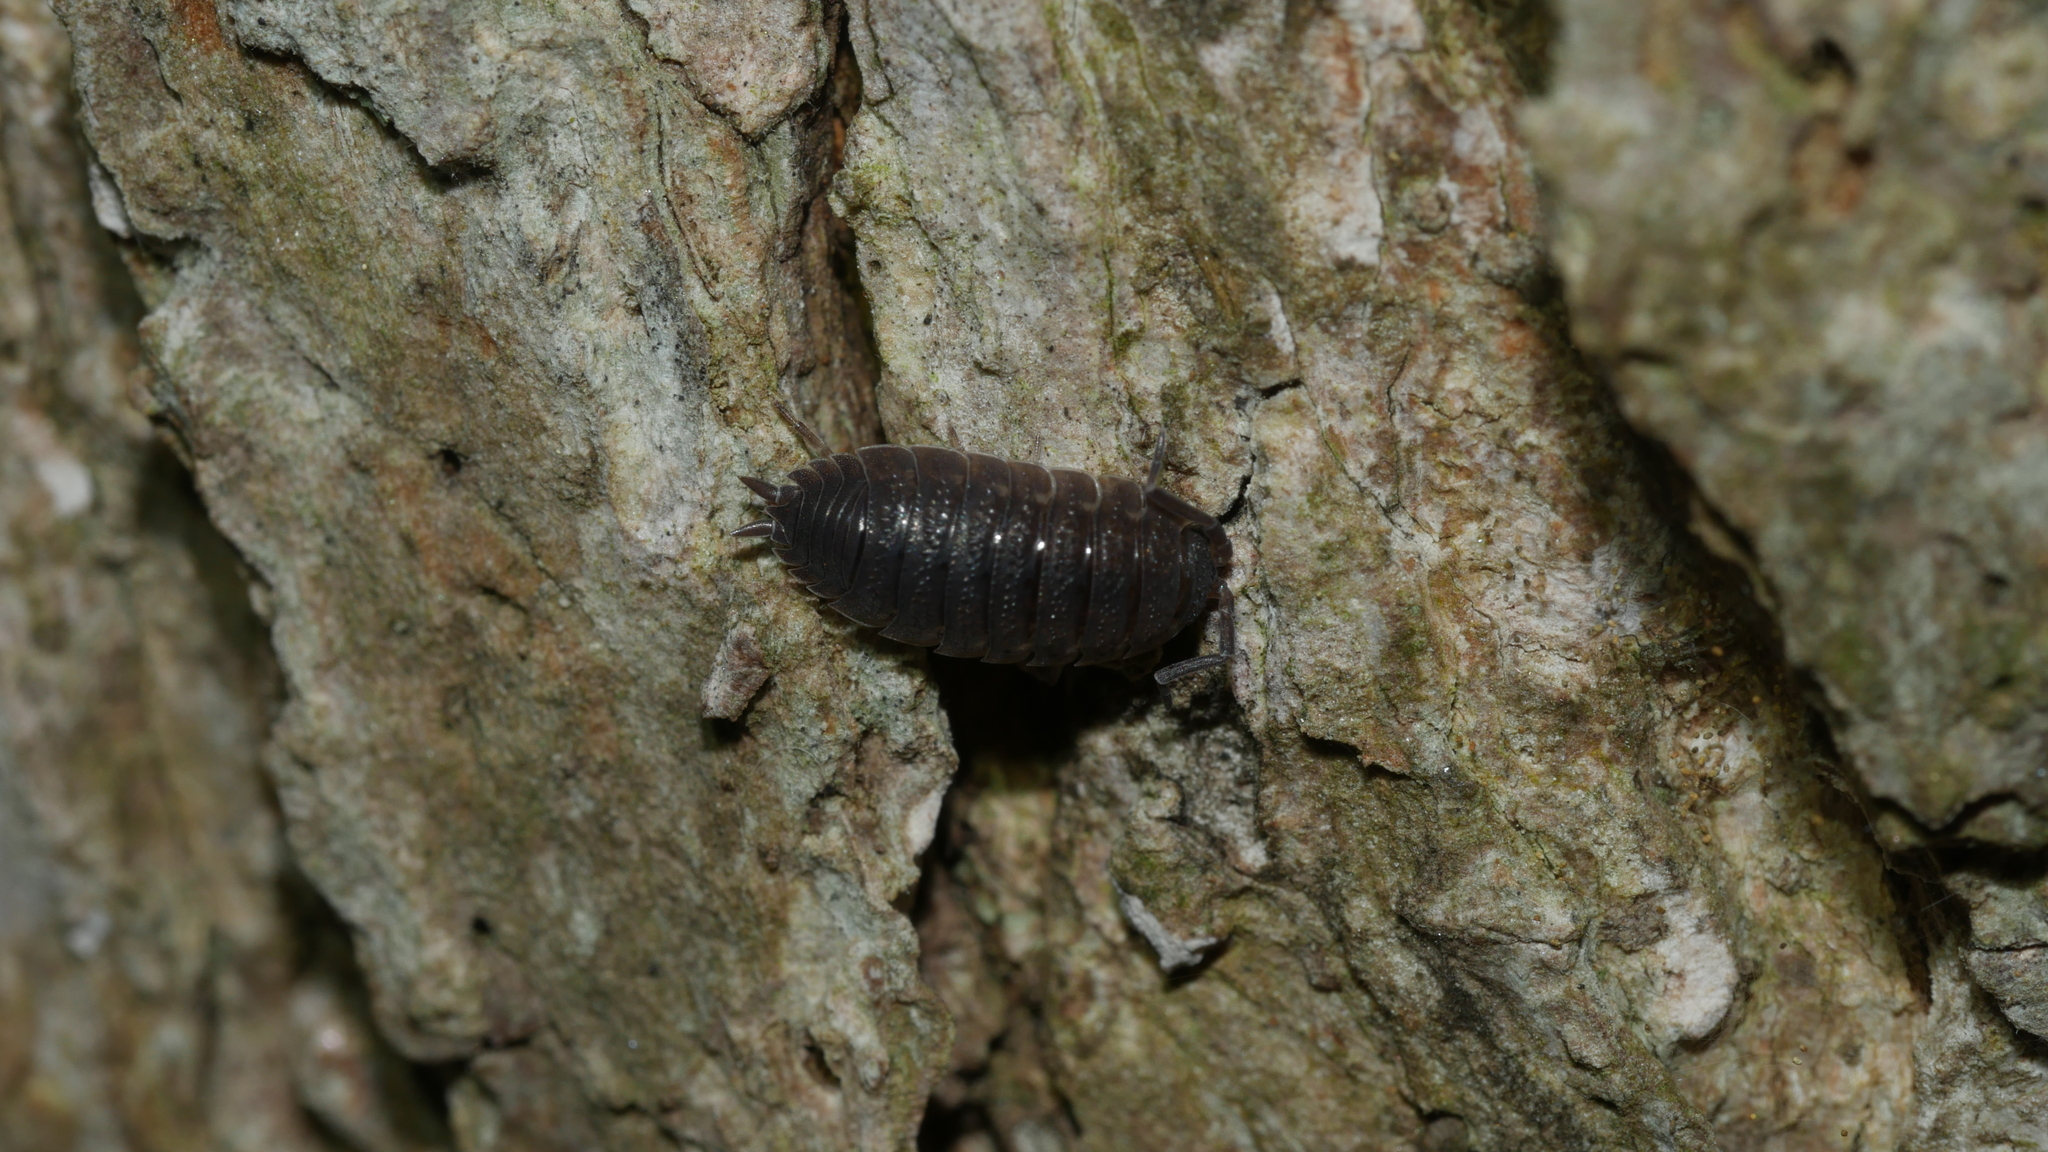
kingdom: Animalia
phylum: Arthropoda
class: Malacostraca
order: Isopoda
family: Porcellionidae
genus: Porcellio
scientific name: Porcellio scaber
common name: Common rough woodlouse
